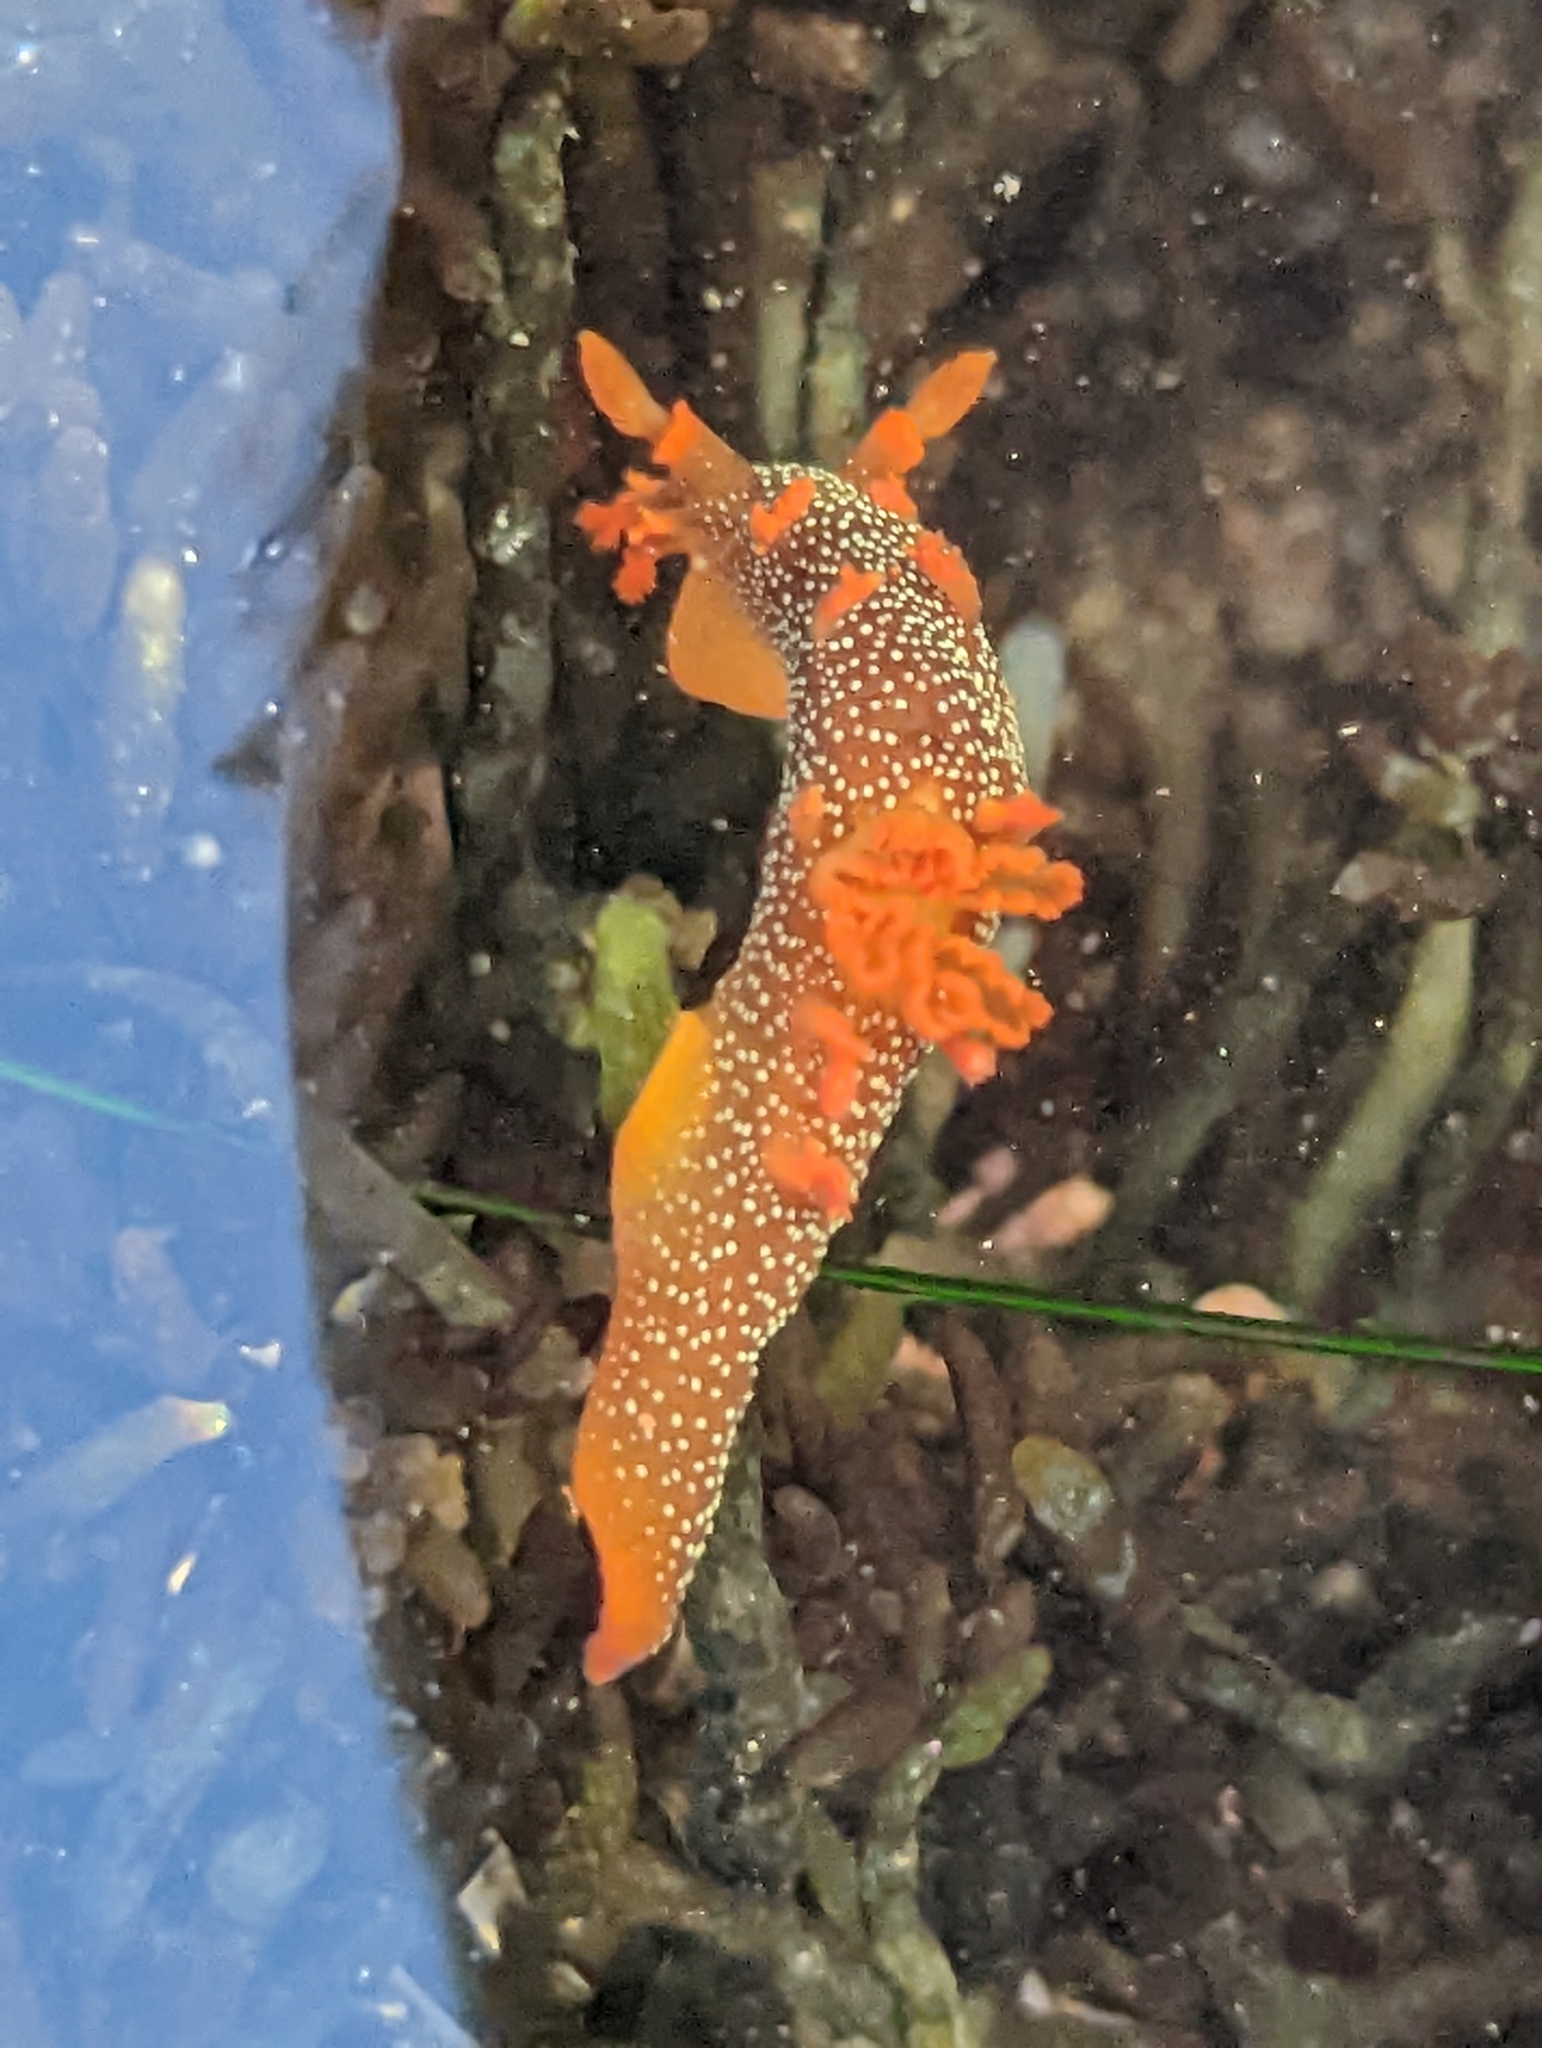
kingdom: Animalia
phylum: Mollusca
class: Gastropoda
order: Nudibranchia
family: Polyceridae
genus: Triopha
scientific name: Triopha maculata
